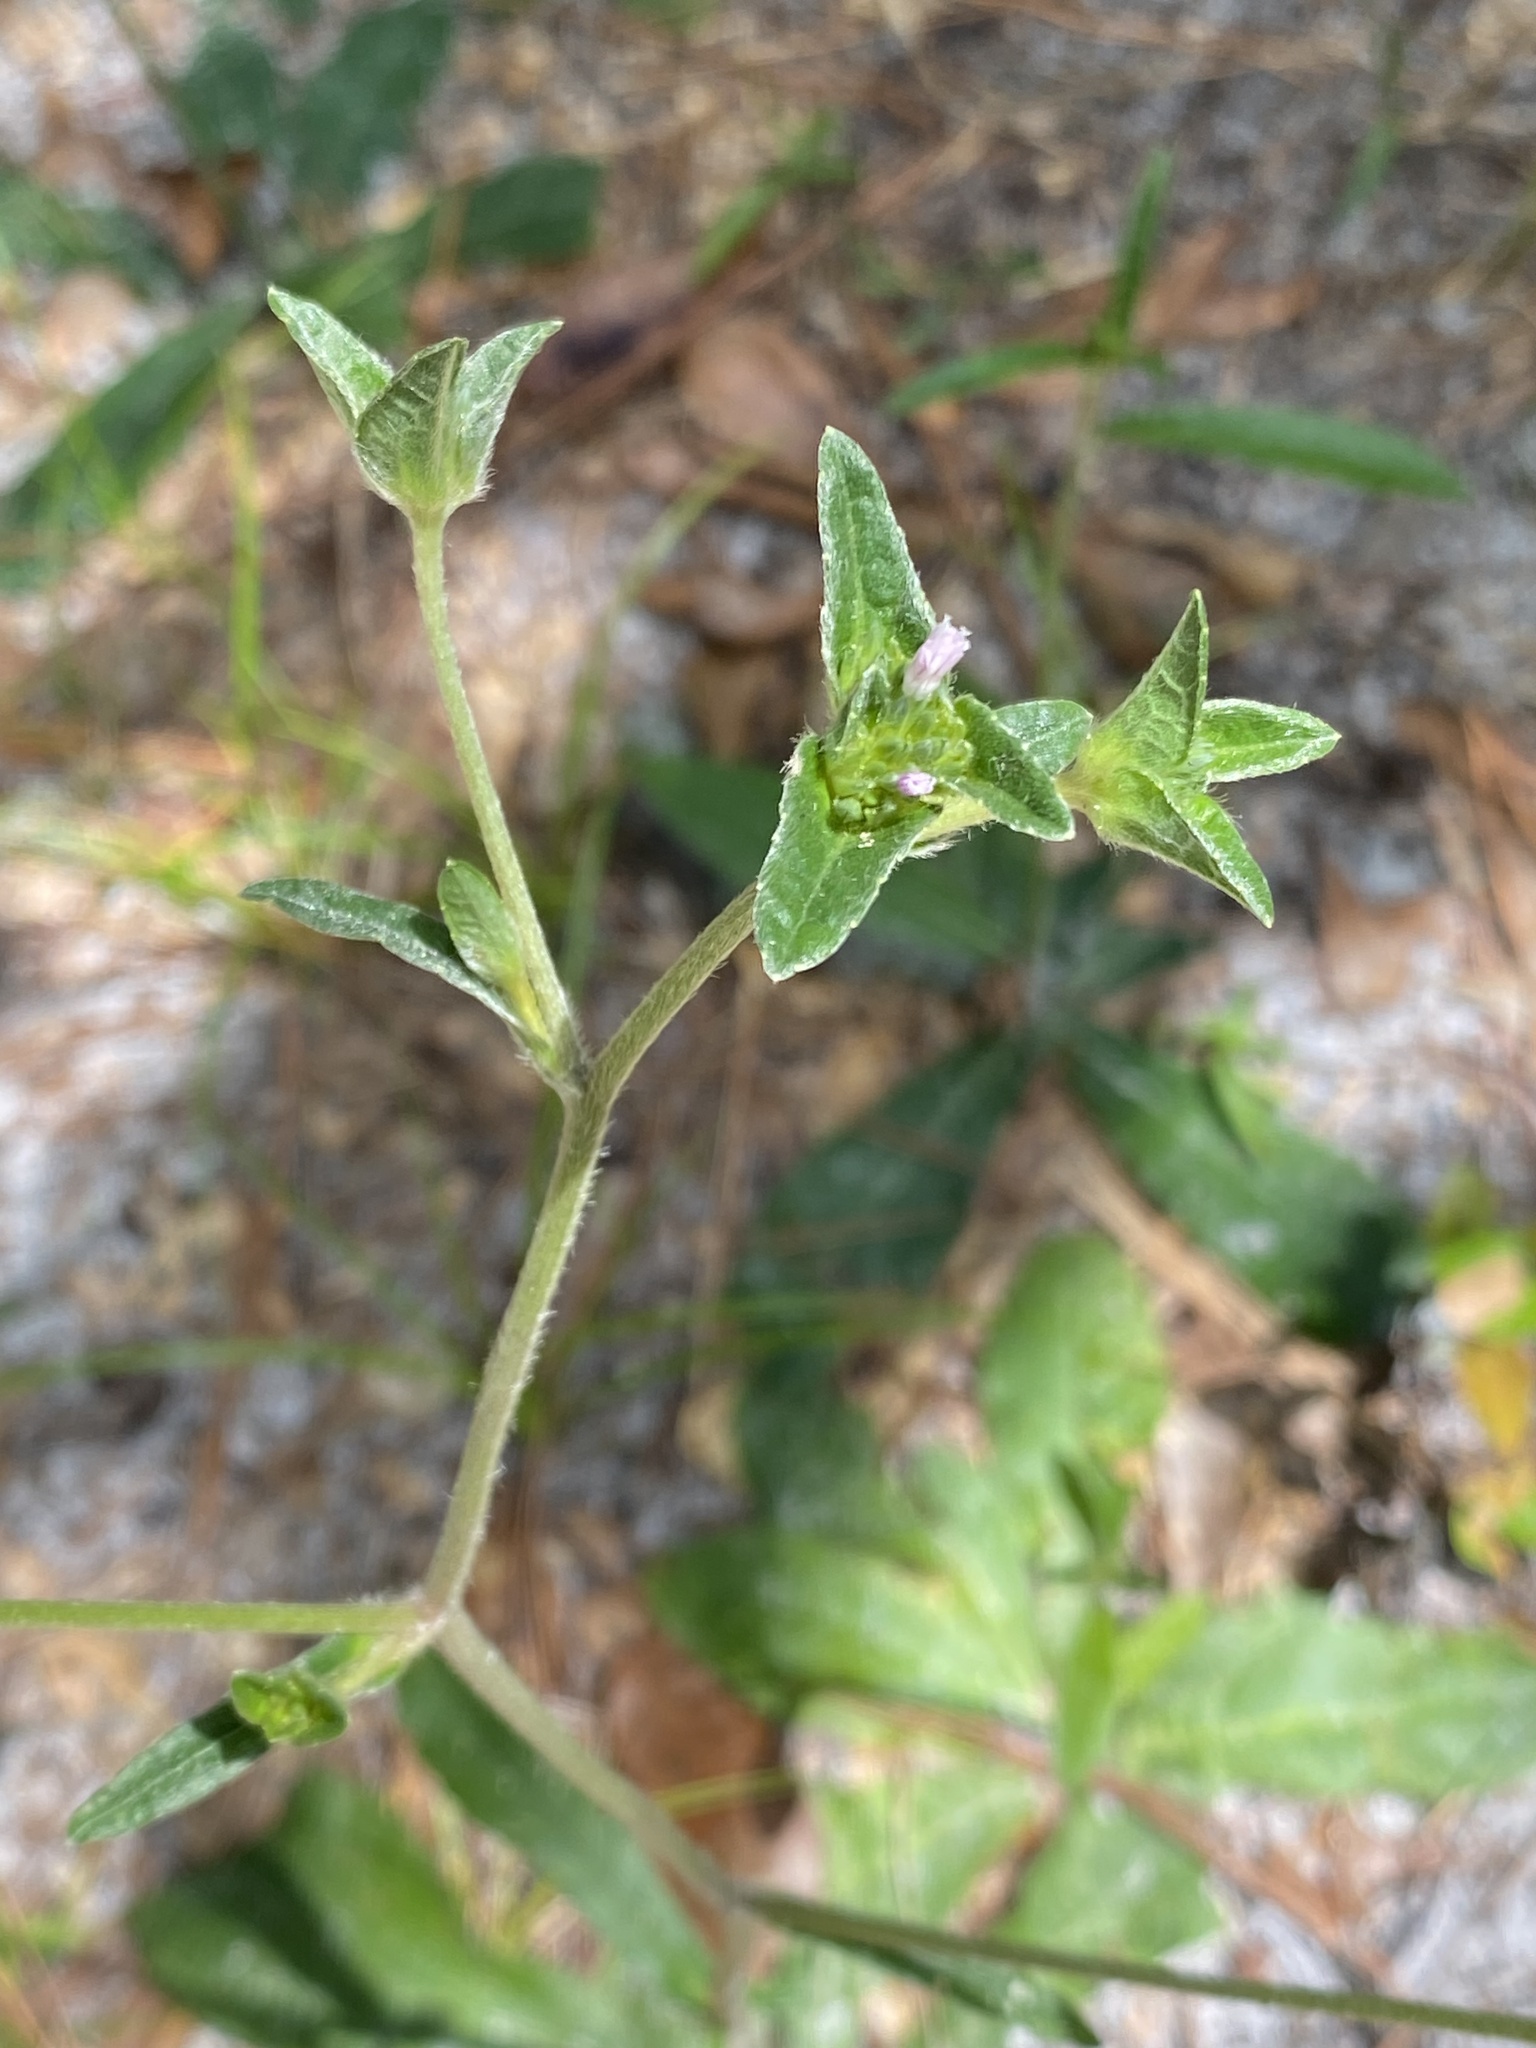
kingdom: Plantae
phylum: Tracheophyta
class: Magnoliopsida
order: Asterales
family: Asteraceae
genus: Elephantopus
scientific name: Elephantopus elatus
